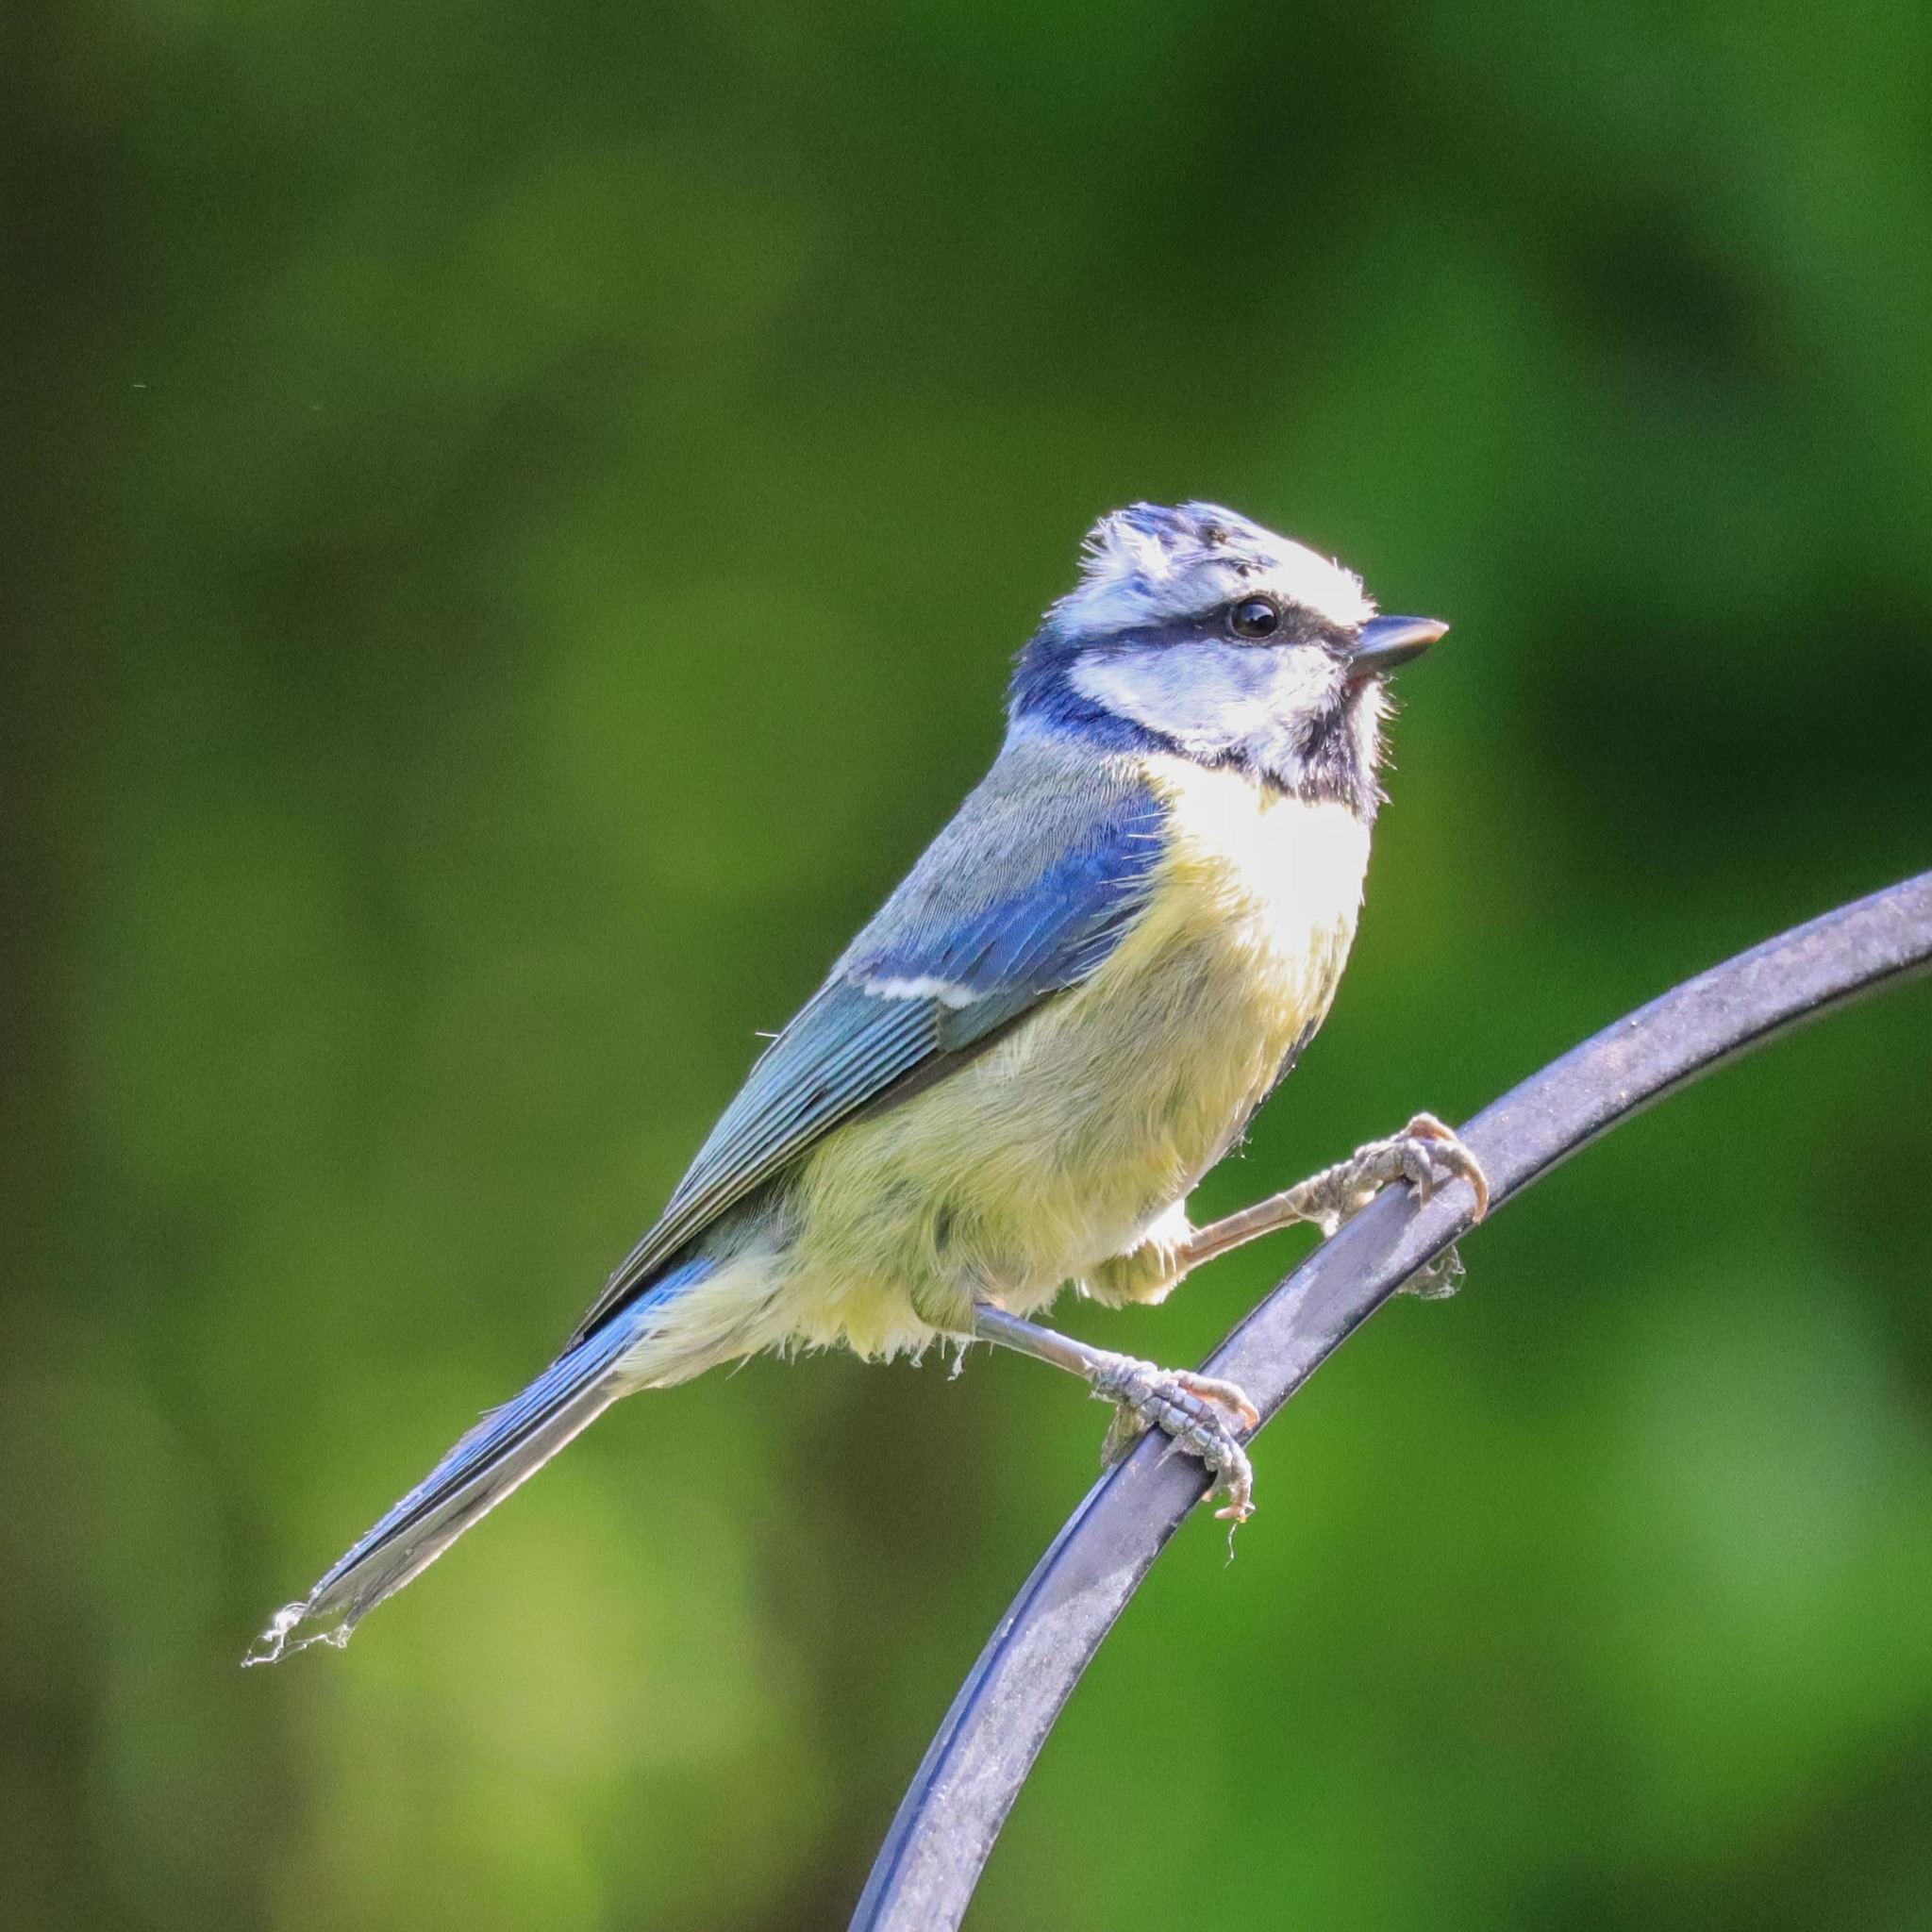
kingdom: Animalia
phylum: Chordata
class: Aves
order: Passeriformes
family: Paridae
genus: Cyanistes
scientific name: Cyanistes caeruleus
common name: Eurasian blue tit
